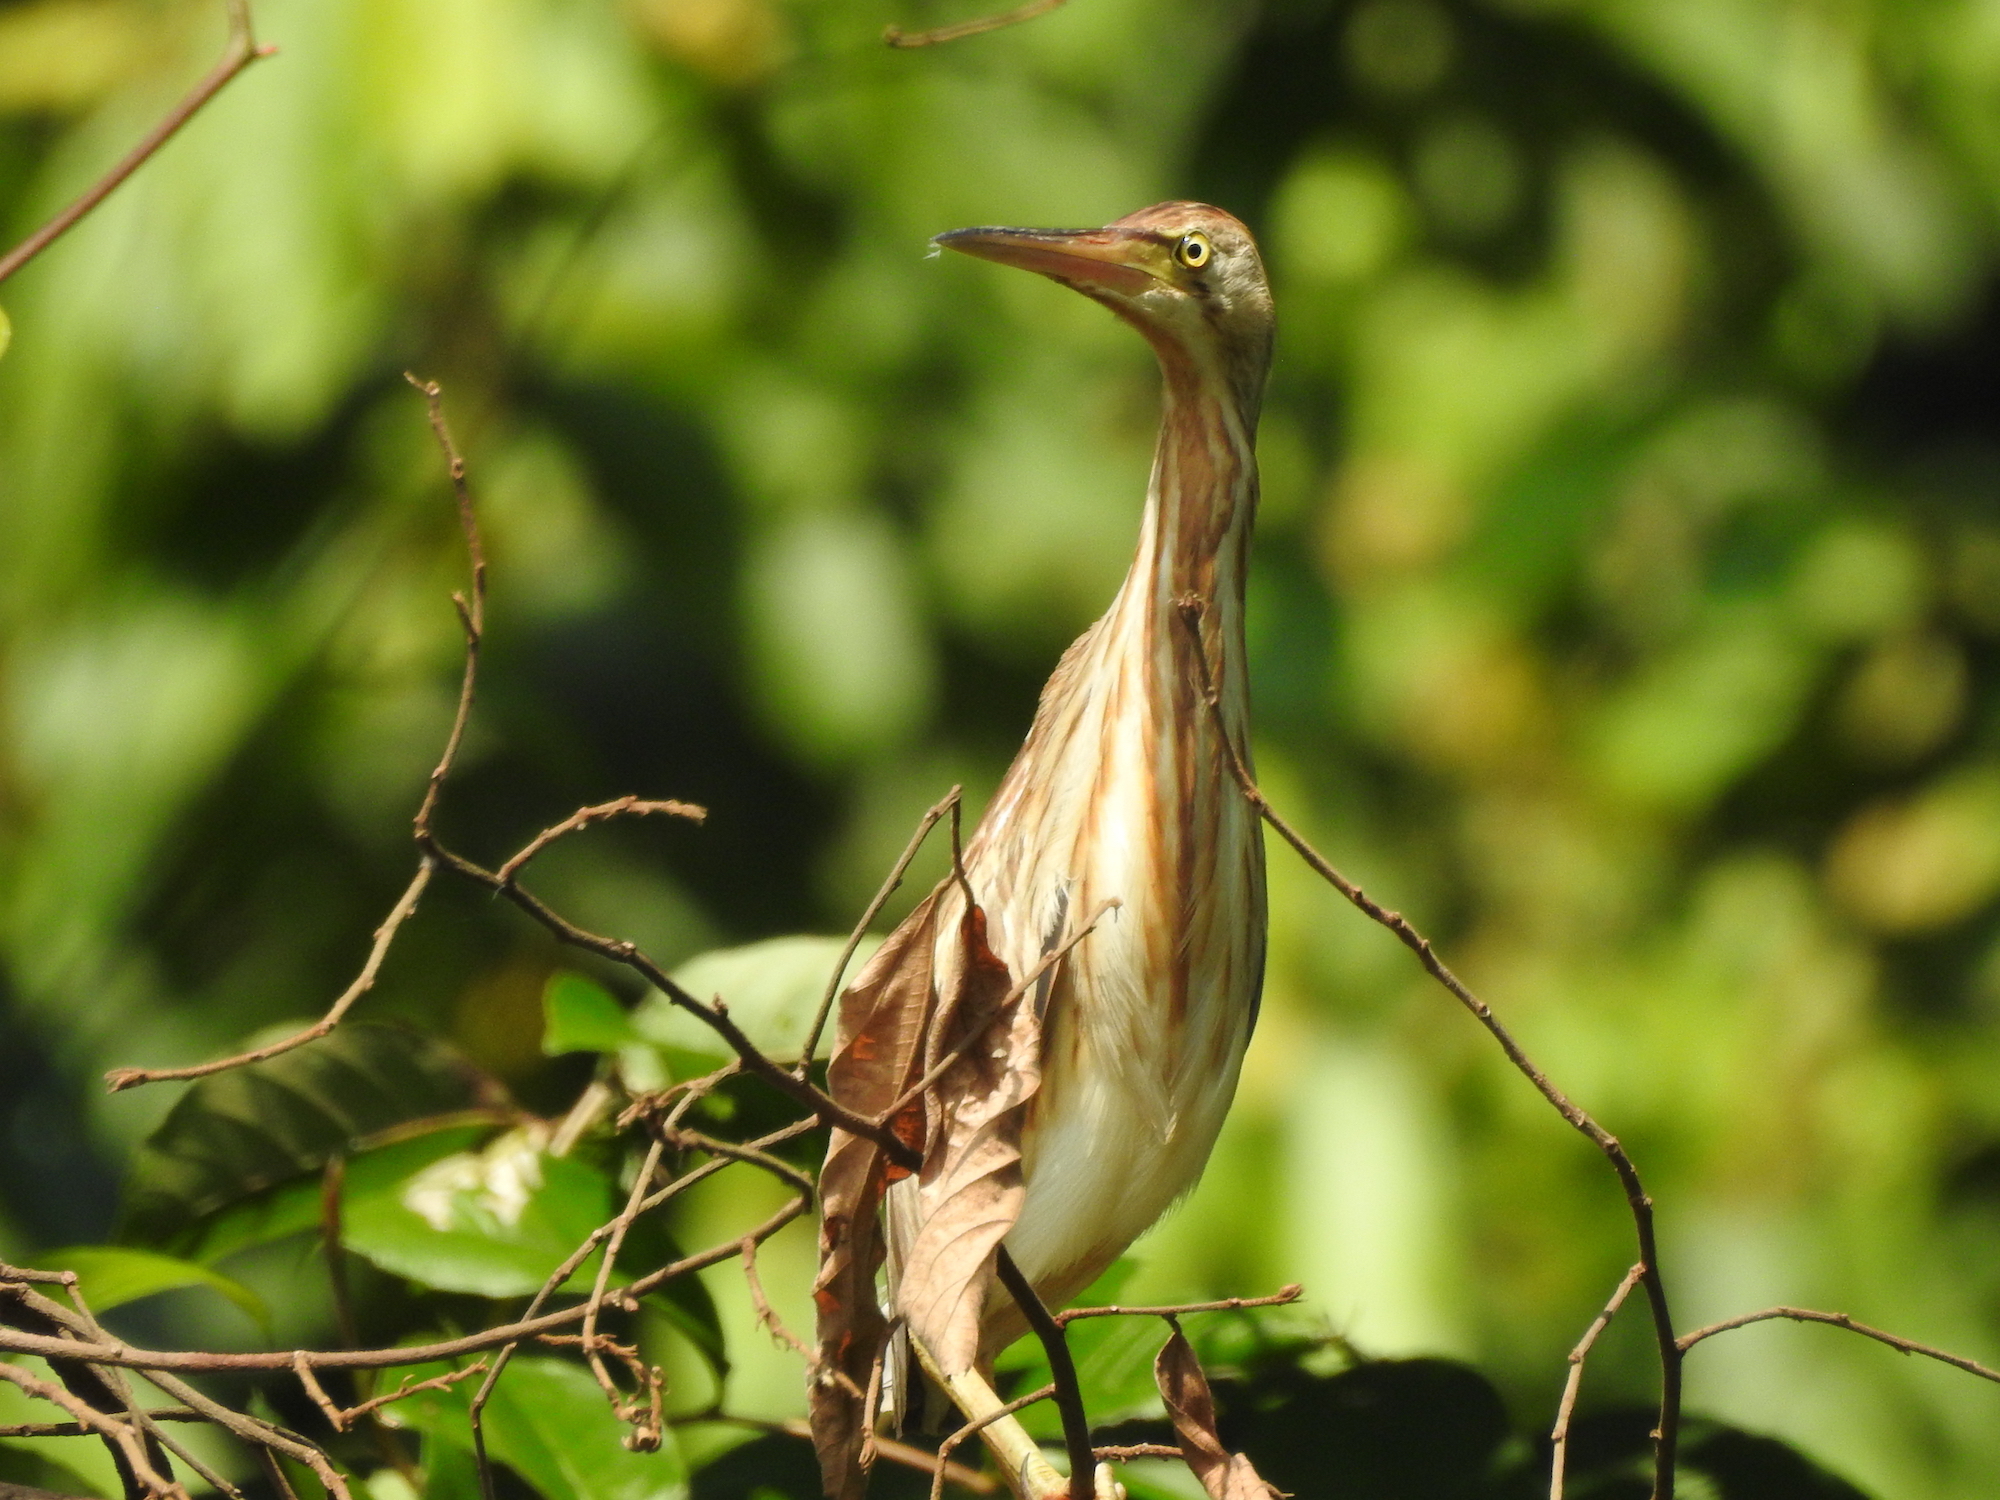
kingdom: Animalia
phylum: Chordata
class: Aves
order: Pelecaniformes
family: Ardeidae
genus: Ixobrychus
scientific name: Ixobrychus sinensis
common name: Yellow bittern
